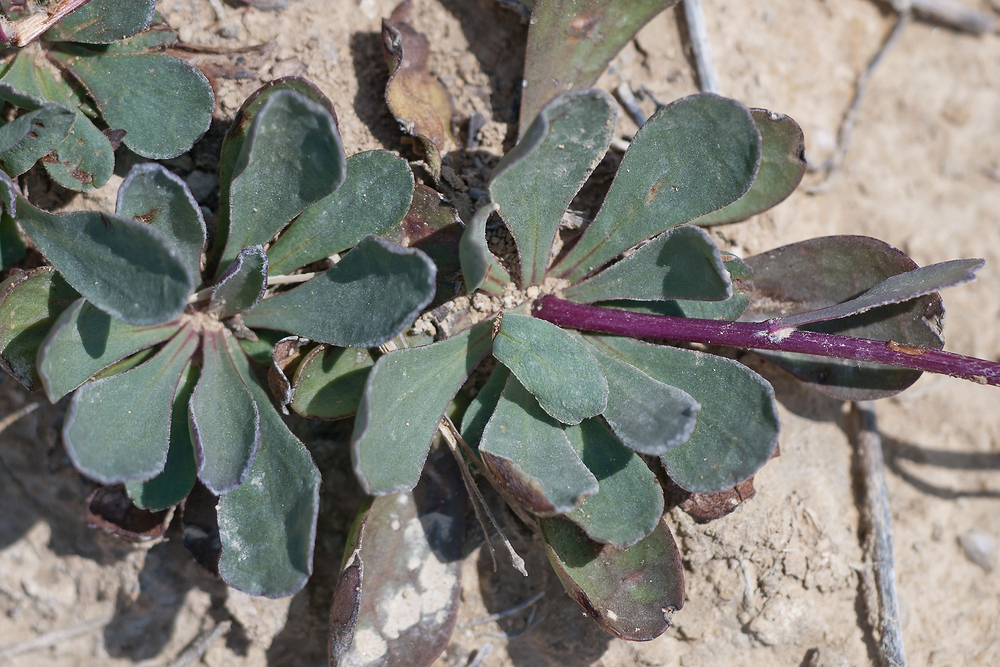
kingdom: Plantae
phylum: Tracheophyta
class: Magnoliopsida
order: Asterales
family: Asteraceae
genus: Senecio
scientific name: Senecio auricula
